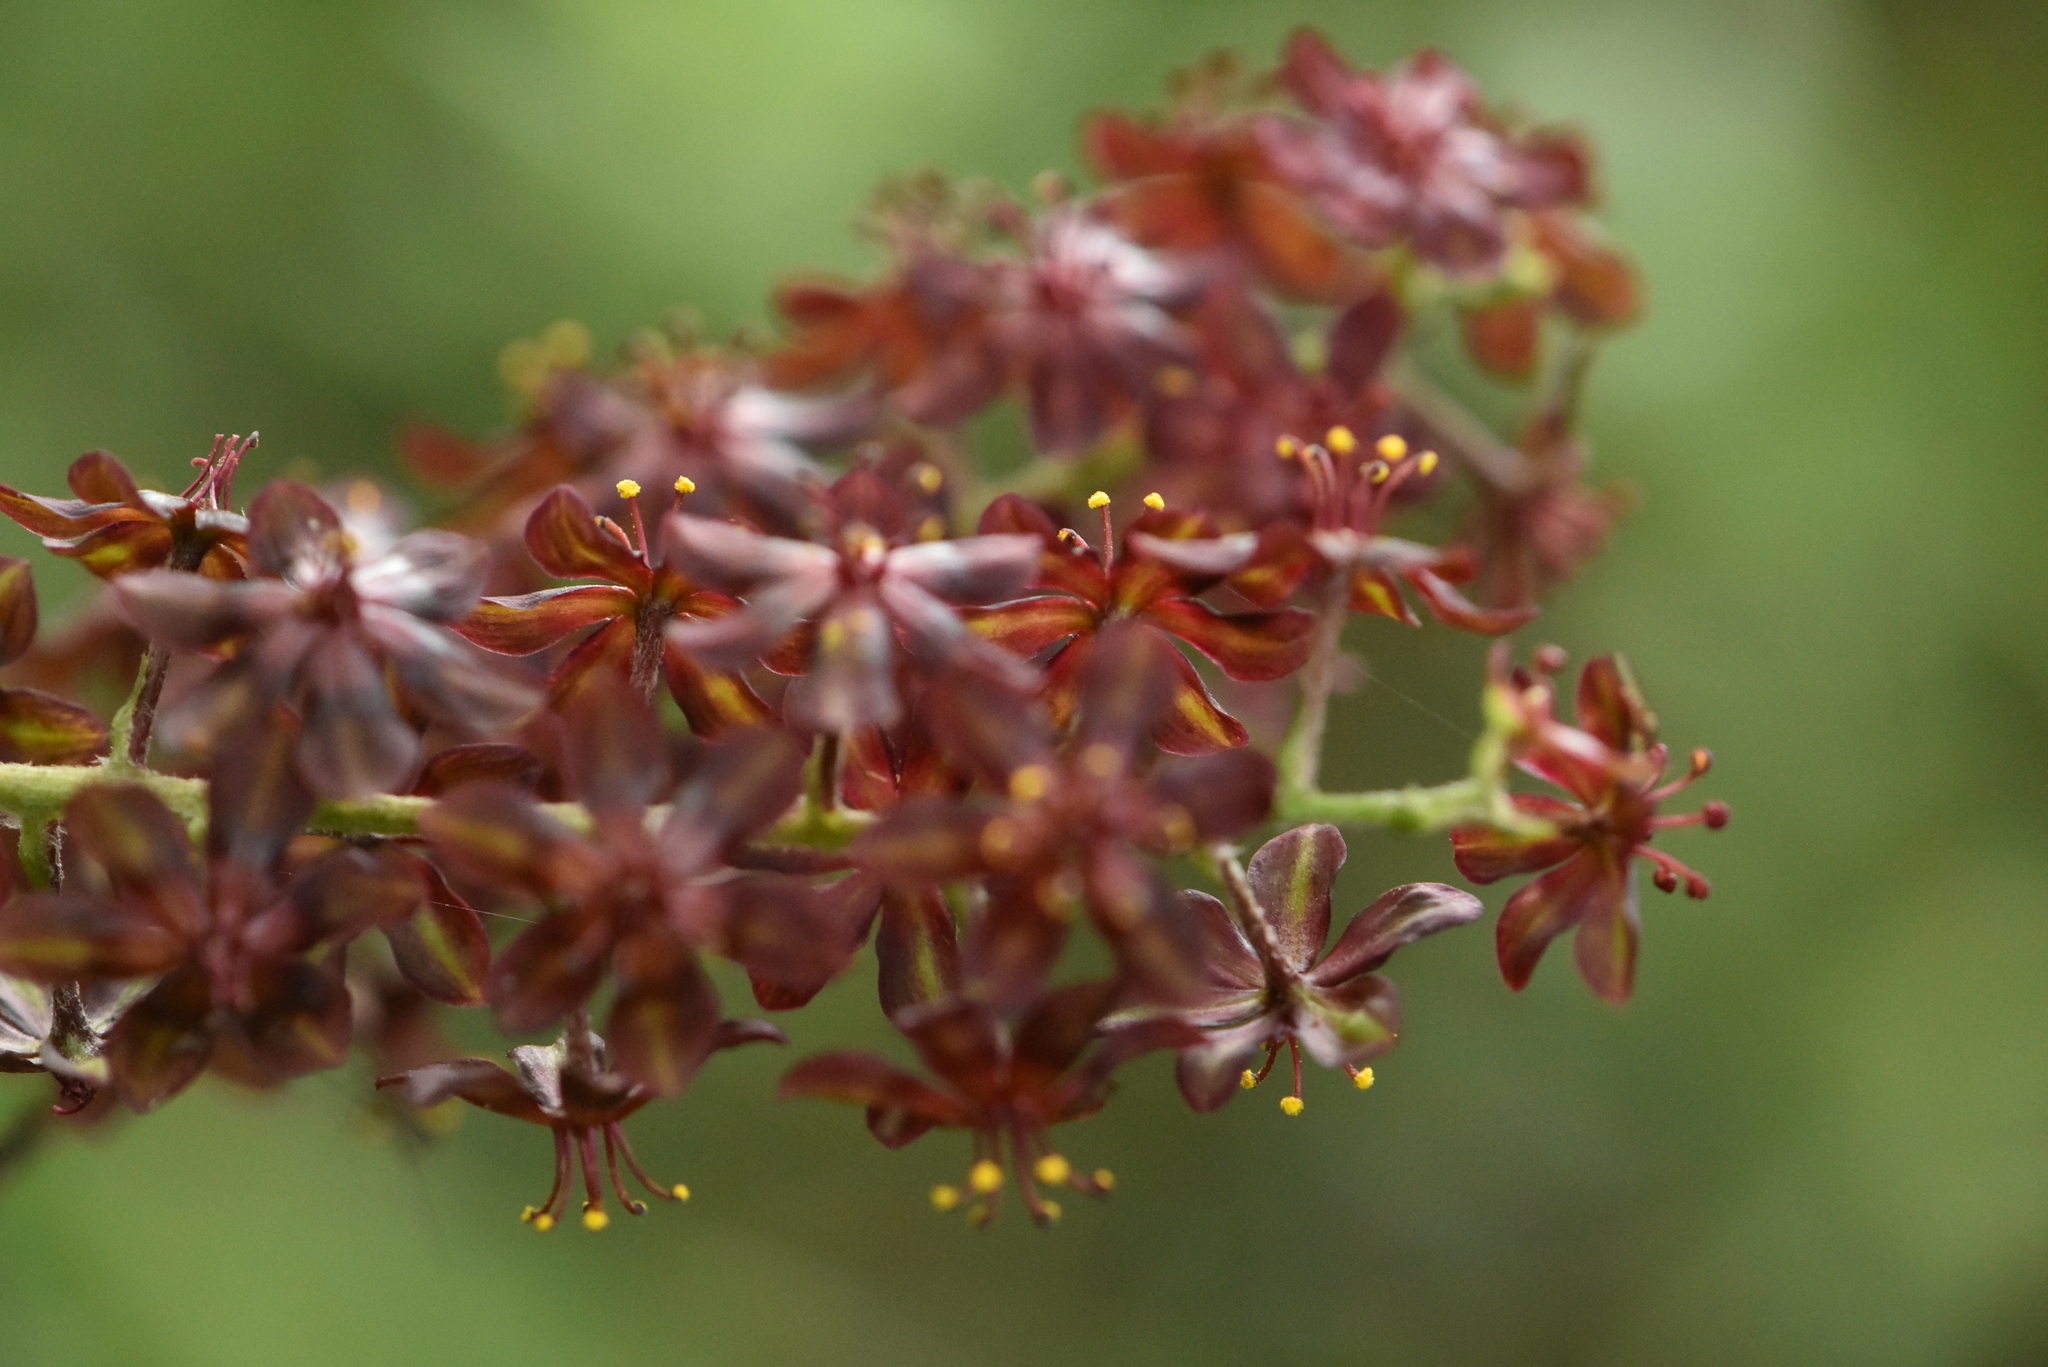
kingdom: Plantae
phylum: Tracheophyta
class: Liliopsida
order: Liliales
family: Melanthiaceae
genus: Veratrum
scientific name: Veratrum nigrum
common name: Black veratrum
